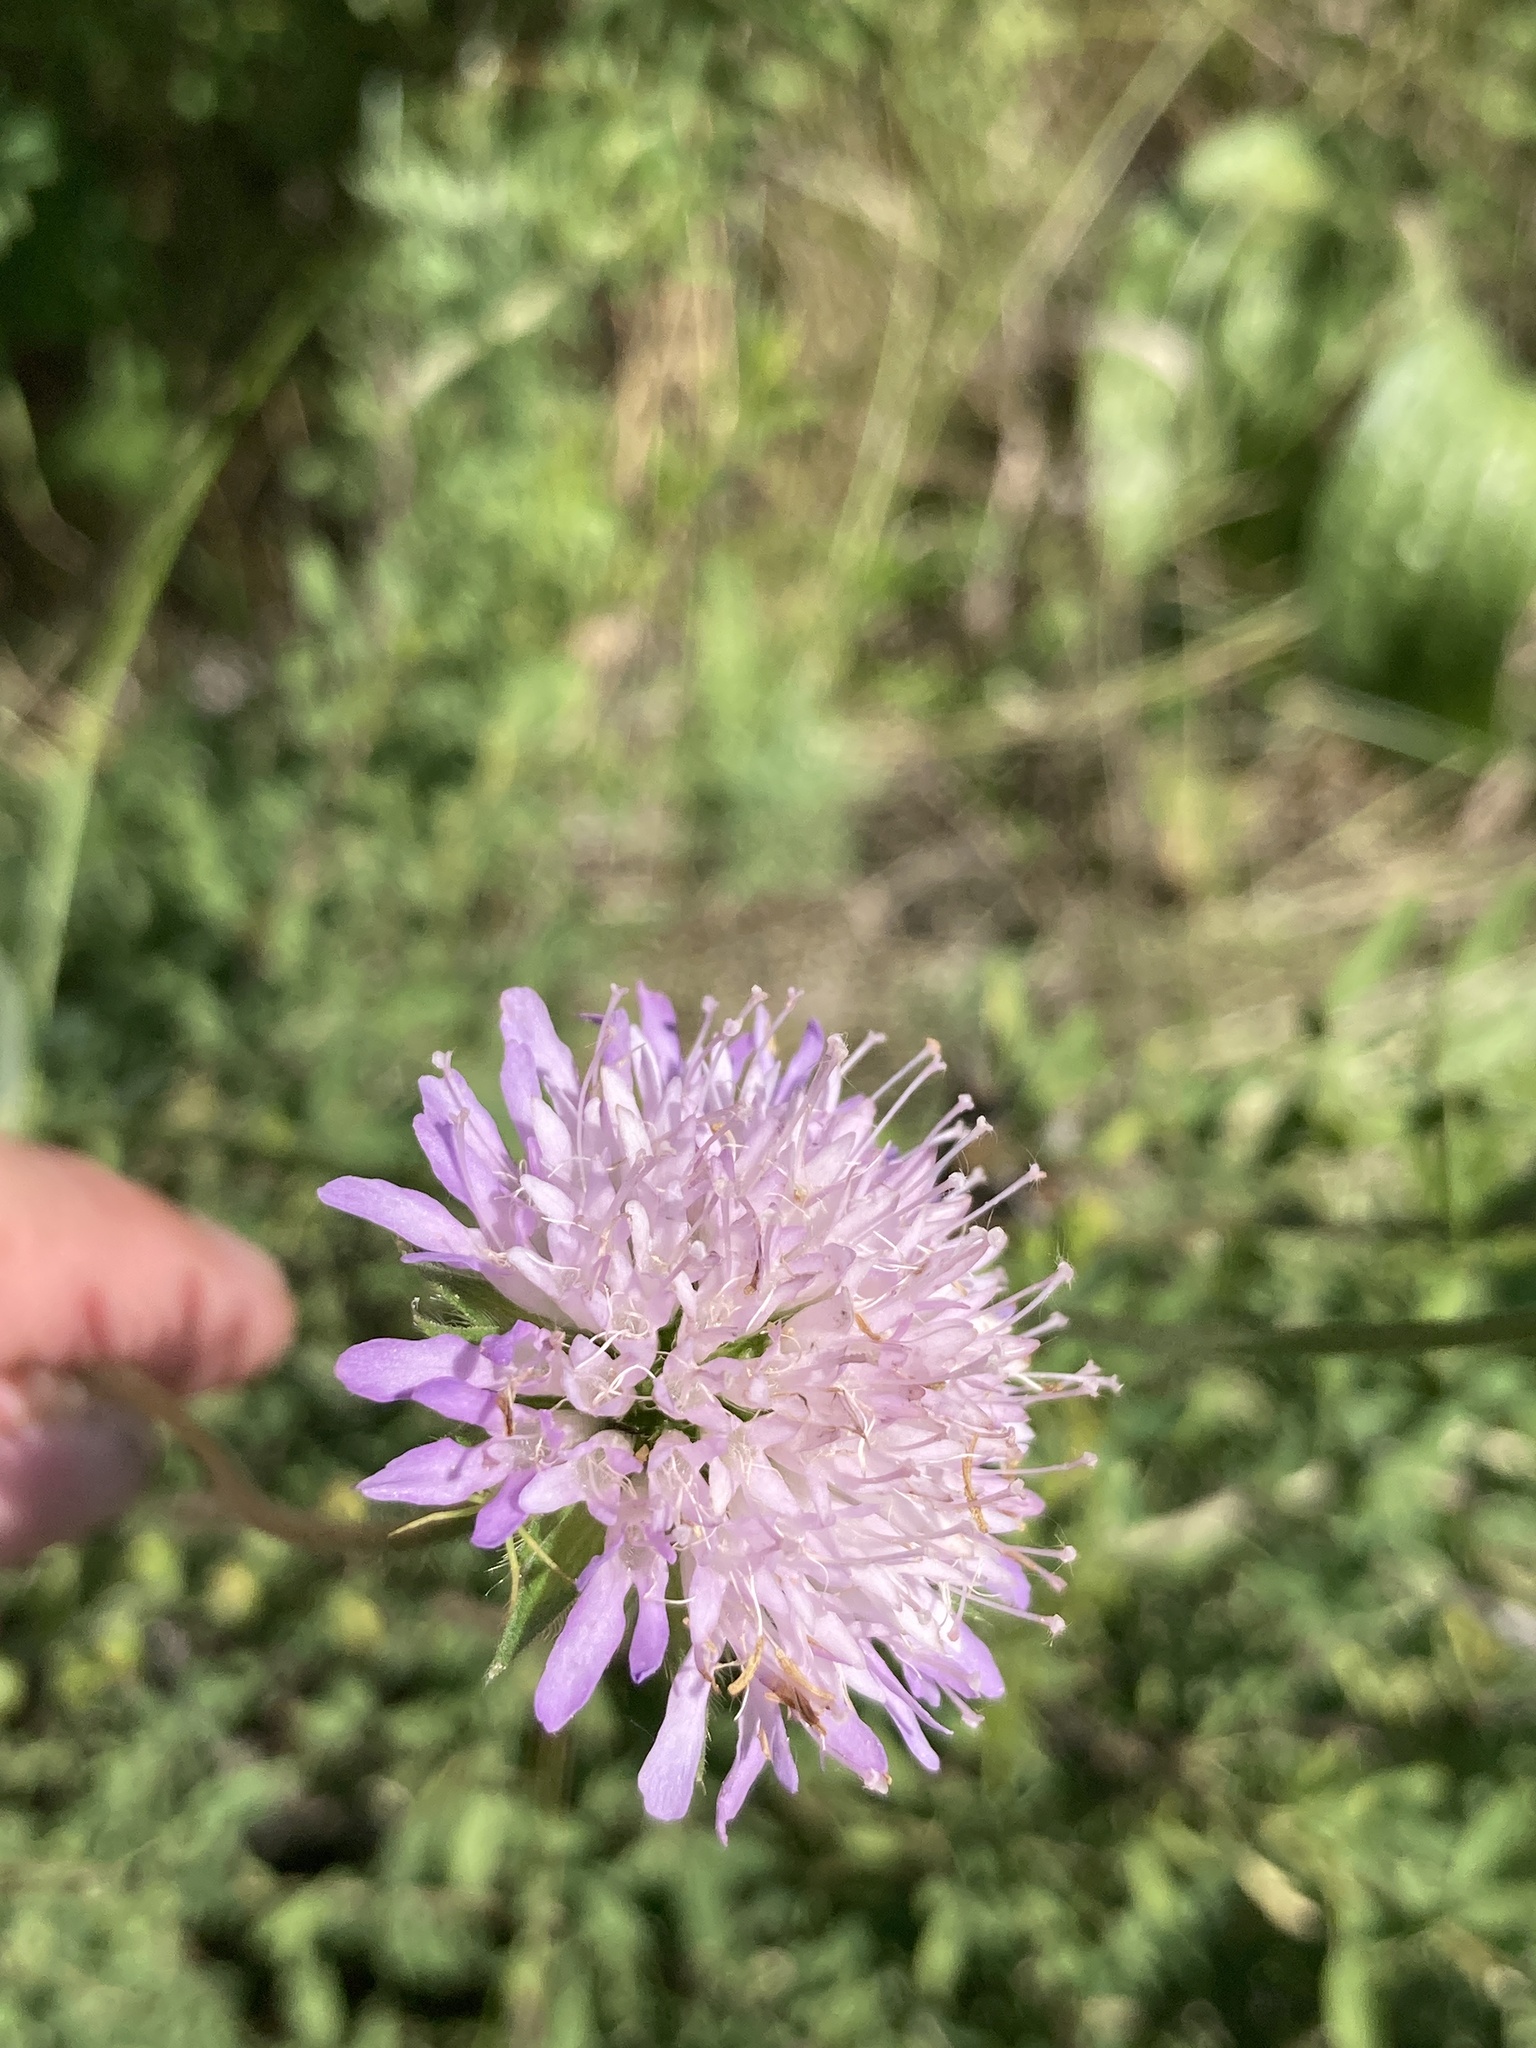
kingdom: Plantae
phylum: Tracheophyta
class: Magnoliopsida
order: Dipsacales
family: Caprifoliaceae
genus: Knautia
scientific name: Knautia arvensis
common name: Field scabiosa
